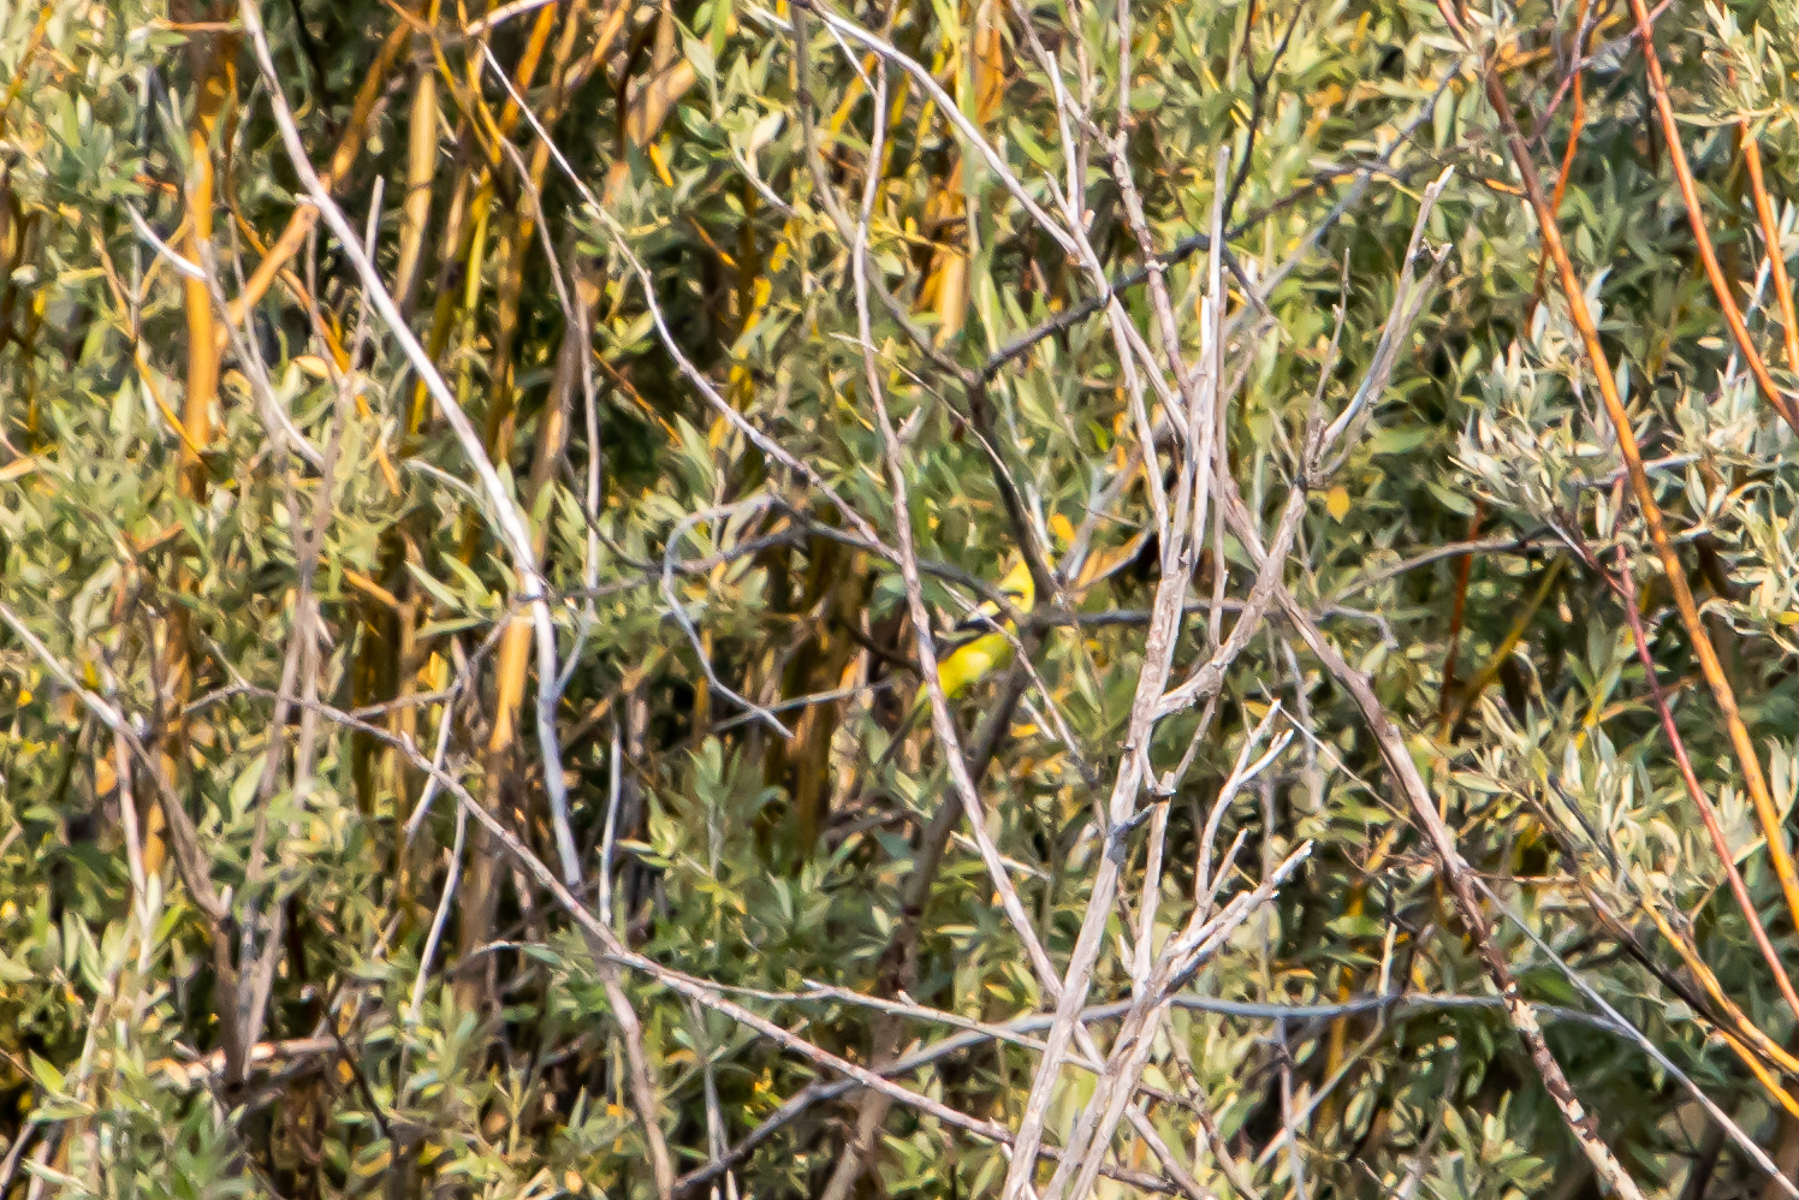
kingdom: Animalia
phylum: Chordata
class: Aves
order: Passeriformes
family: Fringillidae
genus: Spinus
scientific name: Spinus tristis
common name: American goldfinch
